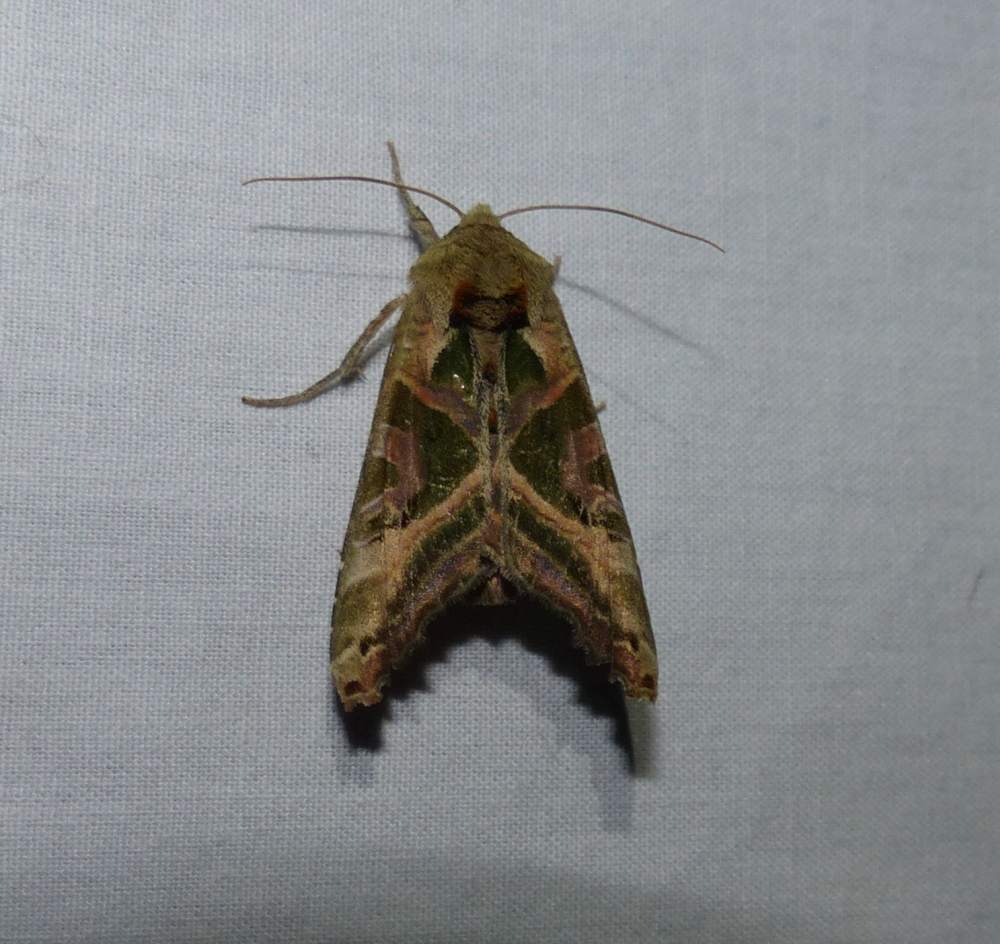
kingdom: Animalia
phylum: Arthropoda
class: Insecta
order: Lepidoptera
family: Noctuidae
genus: Phlogophora
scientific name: Phlogophora iris
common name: Olive angle shades
